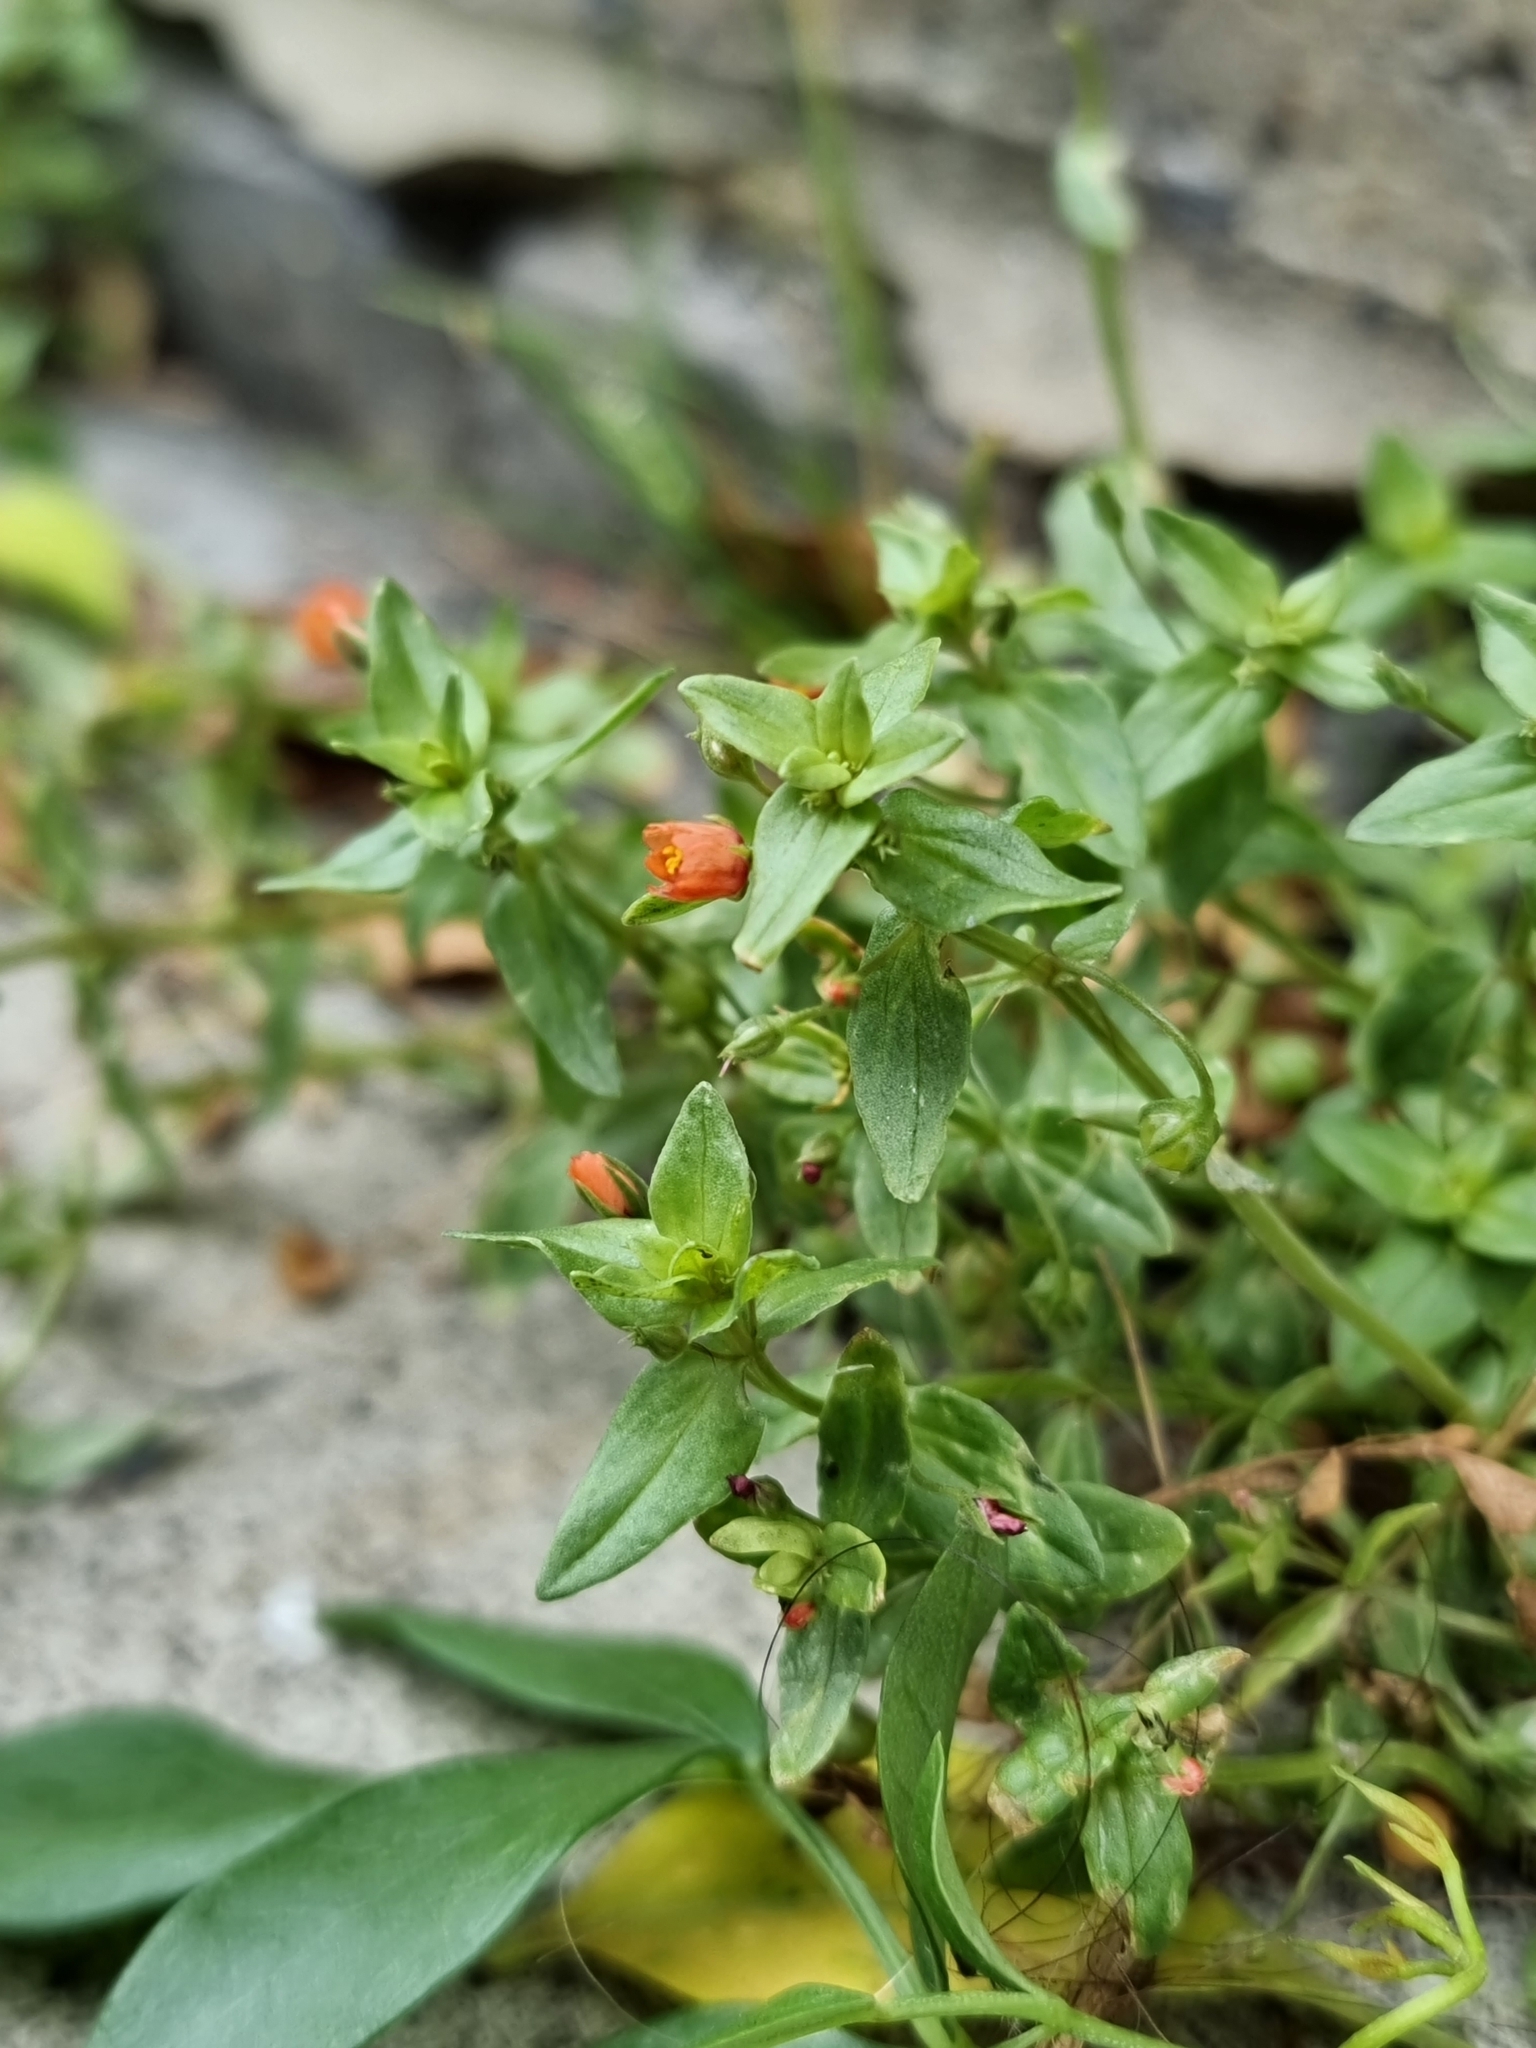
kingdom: Plantae
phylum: Tracheophyta
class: Magnoliopsida
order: Ericales
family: Primulaceae
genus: Lysimachia
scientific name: Lysimachia arvensis
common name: Scarlet pimpernel
